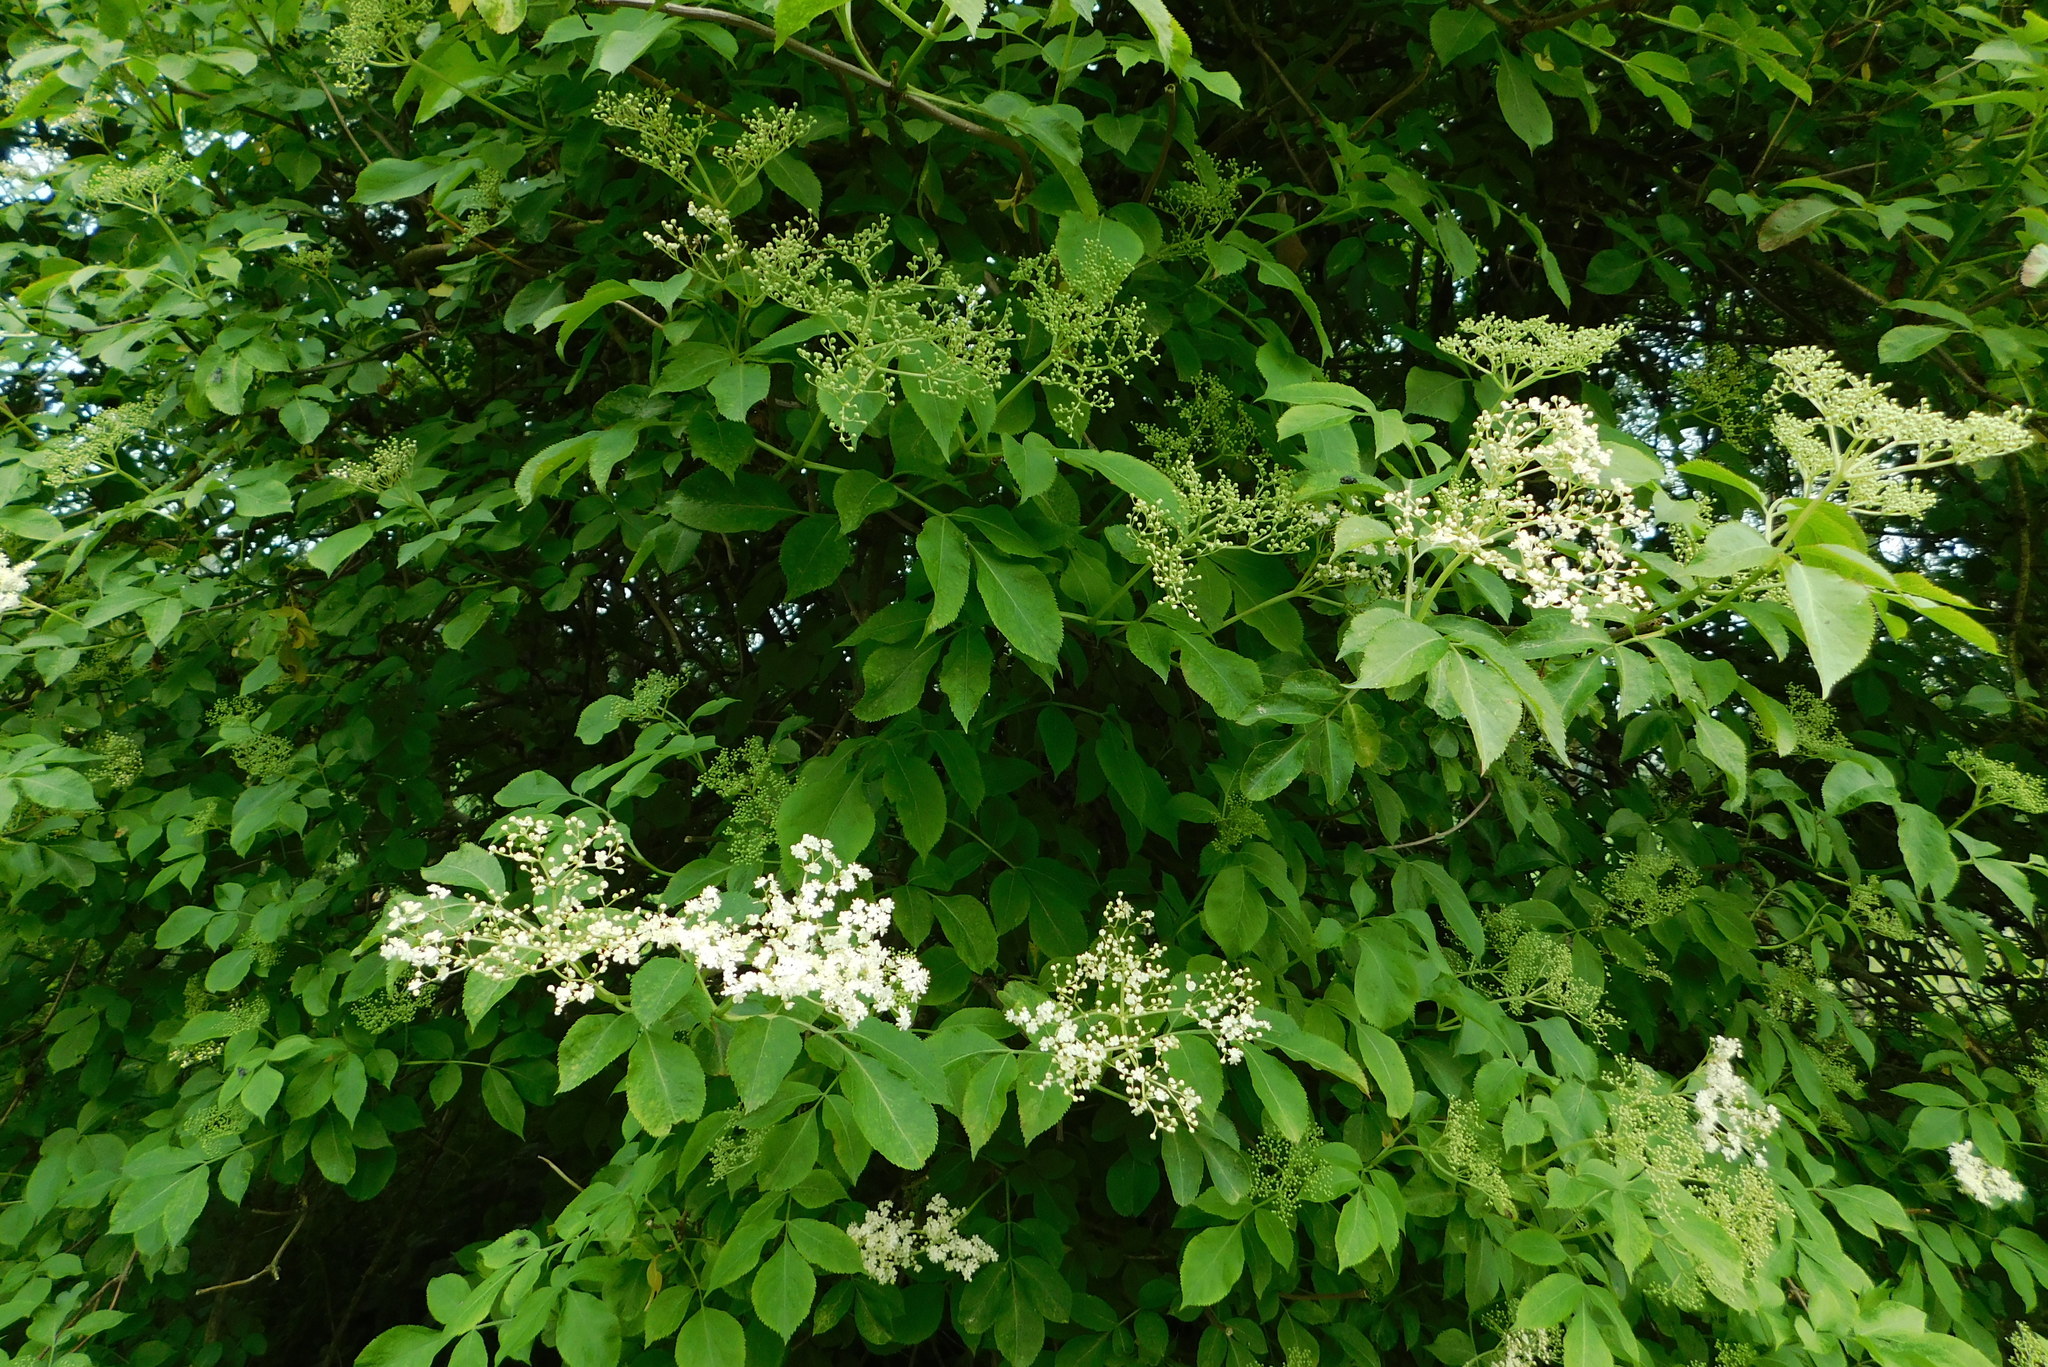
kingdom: Plantae
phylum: Tracheophyta
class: Magnoliopsida
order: Dipsacales
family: Viburnaceae
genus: Sambucus
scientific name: Sambucus nigra
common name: Elder
